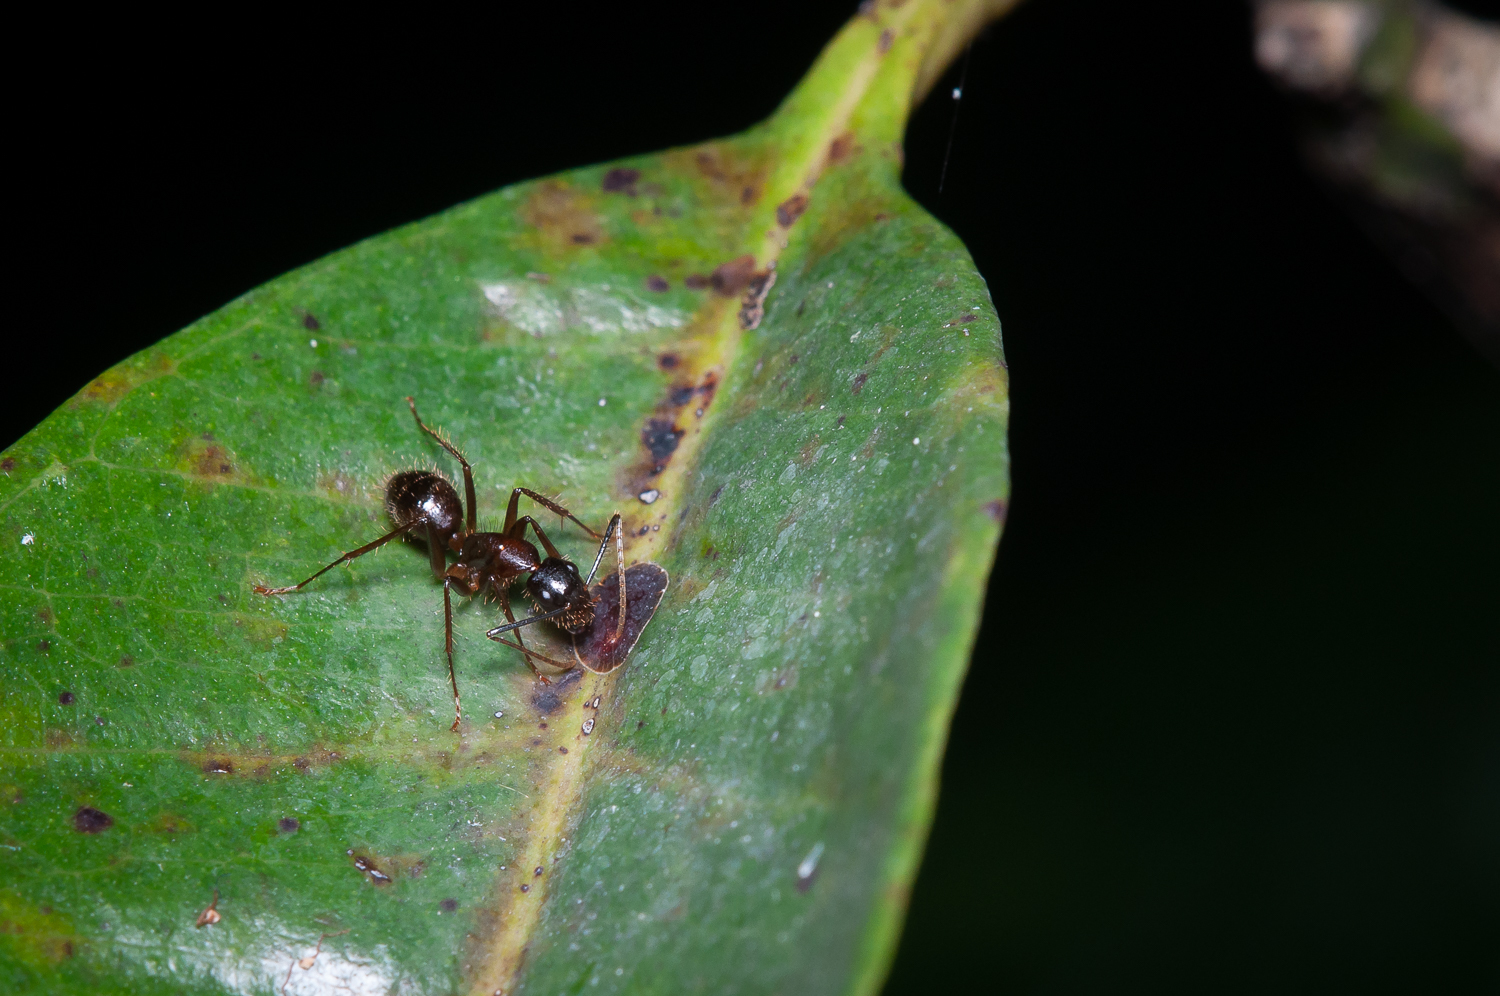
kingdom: Animalia
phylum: Arthropoda
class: Insecta
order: Hymenoptera
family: Formicidae
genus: Camponotus
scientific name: Camponotus atriceps
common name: Florida carpenter ant
